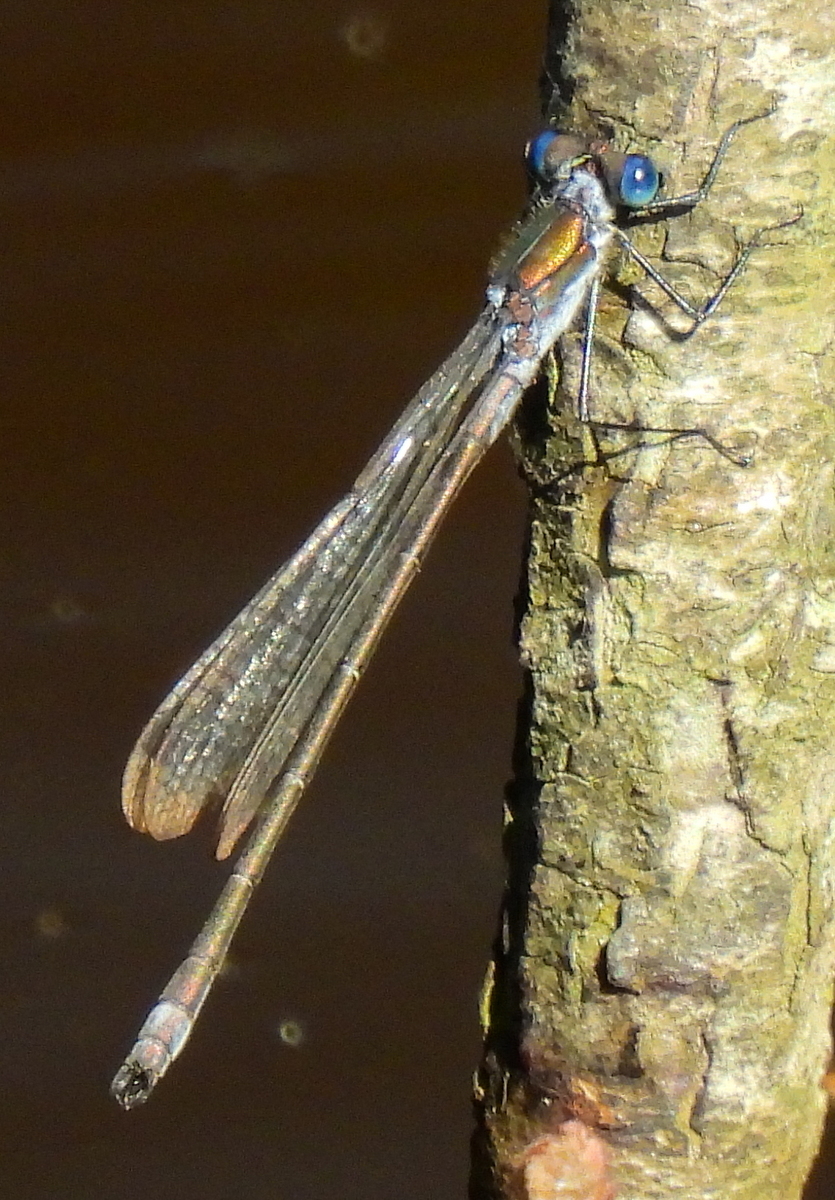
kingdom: Animalia
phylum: Arthropoda
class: Insecta
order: Odonata
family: Lestidae
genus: Lestes
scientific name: Lestes sponsa
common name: Common spreadwing
